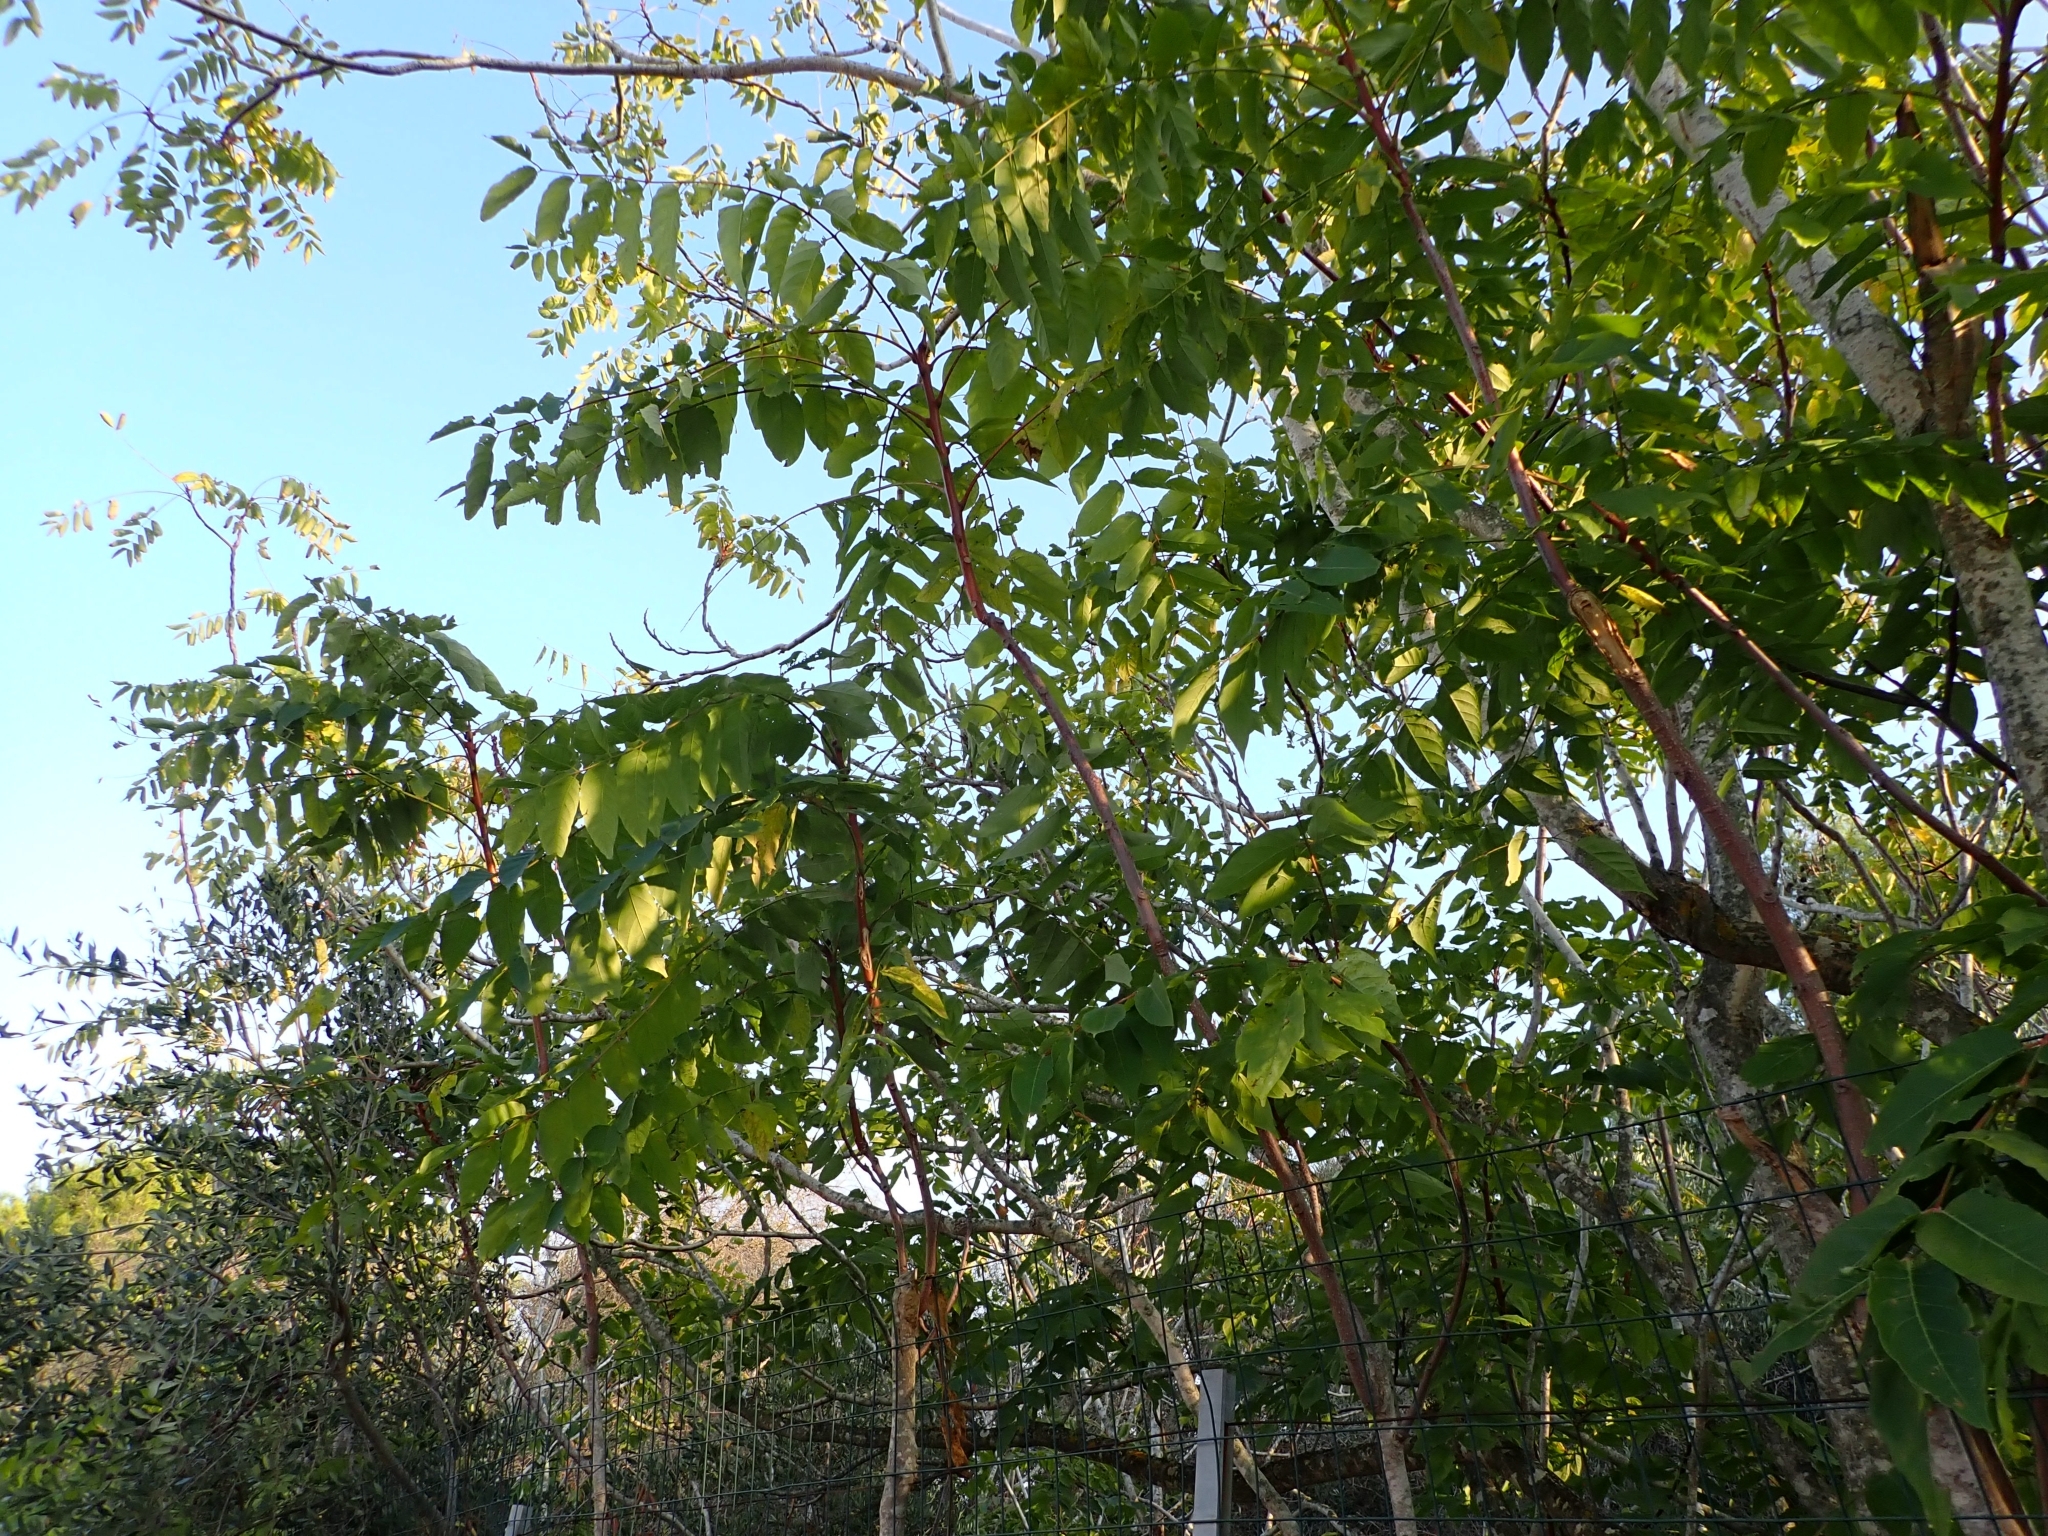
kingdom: Plantae
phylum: Tracheophyta
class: Magnoliopsida
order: Sapindales
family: Simaroubaceae
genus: Ailanthus
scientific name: Ailanthus altissima
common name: Tree-of-heaven
